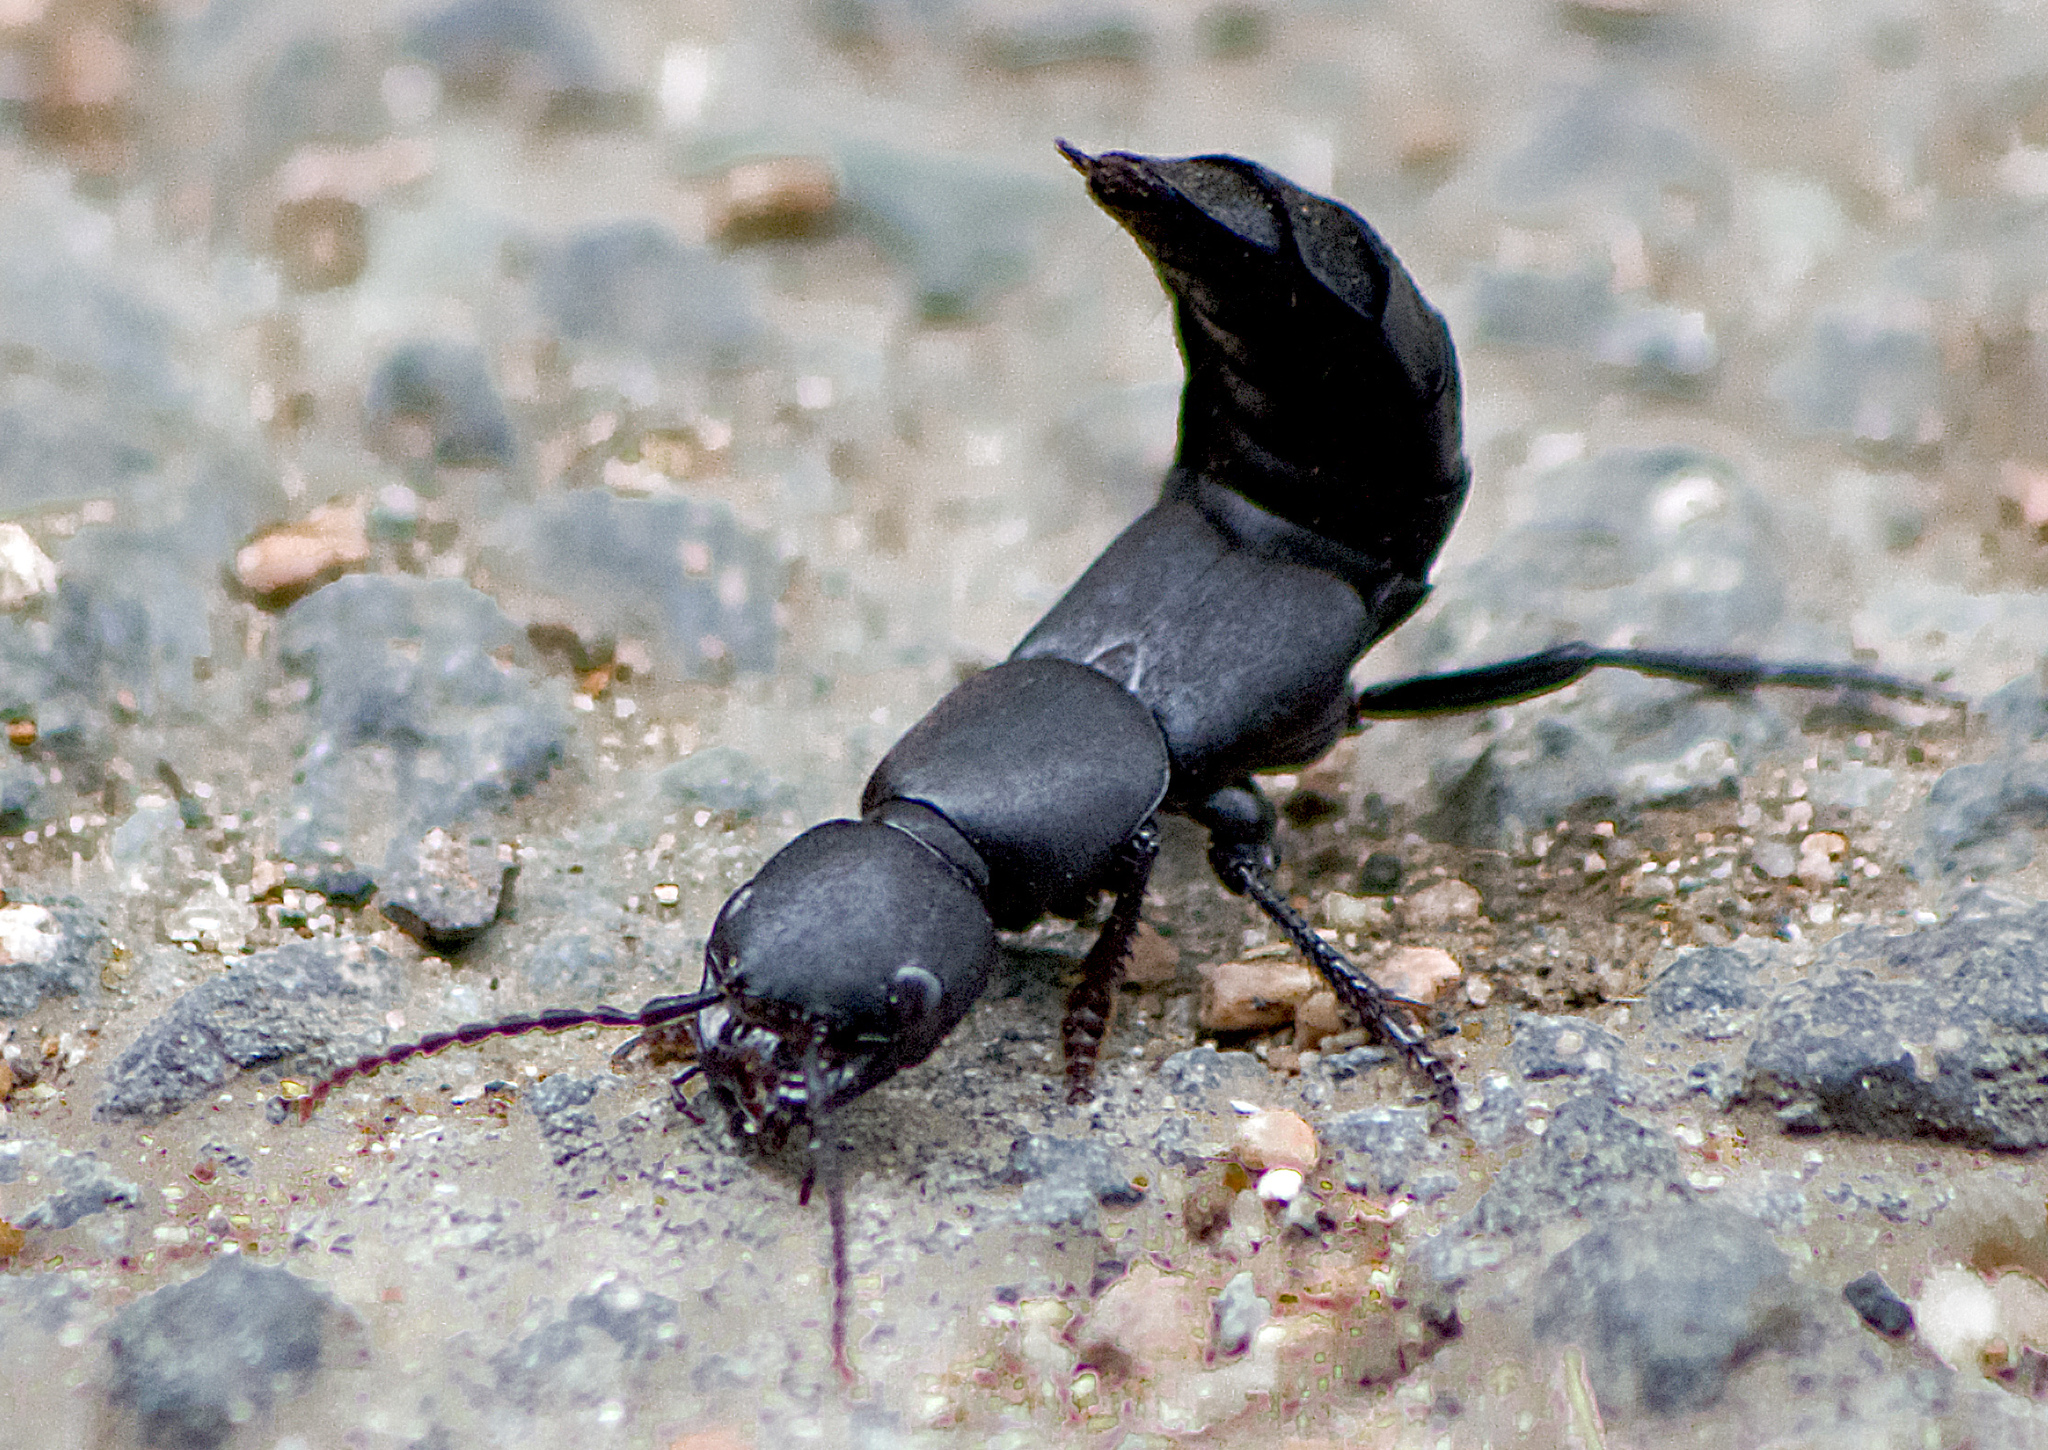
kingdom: Animalia
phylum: Arthropoda
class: Insecta
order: Coleoptera
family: Staphylinidae
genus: Ocypus
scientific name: Ocypus olens
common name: Devil's coach-horse
